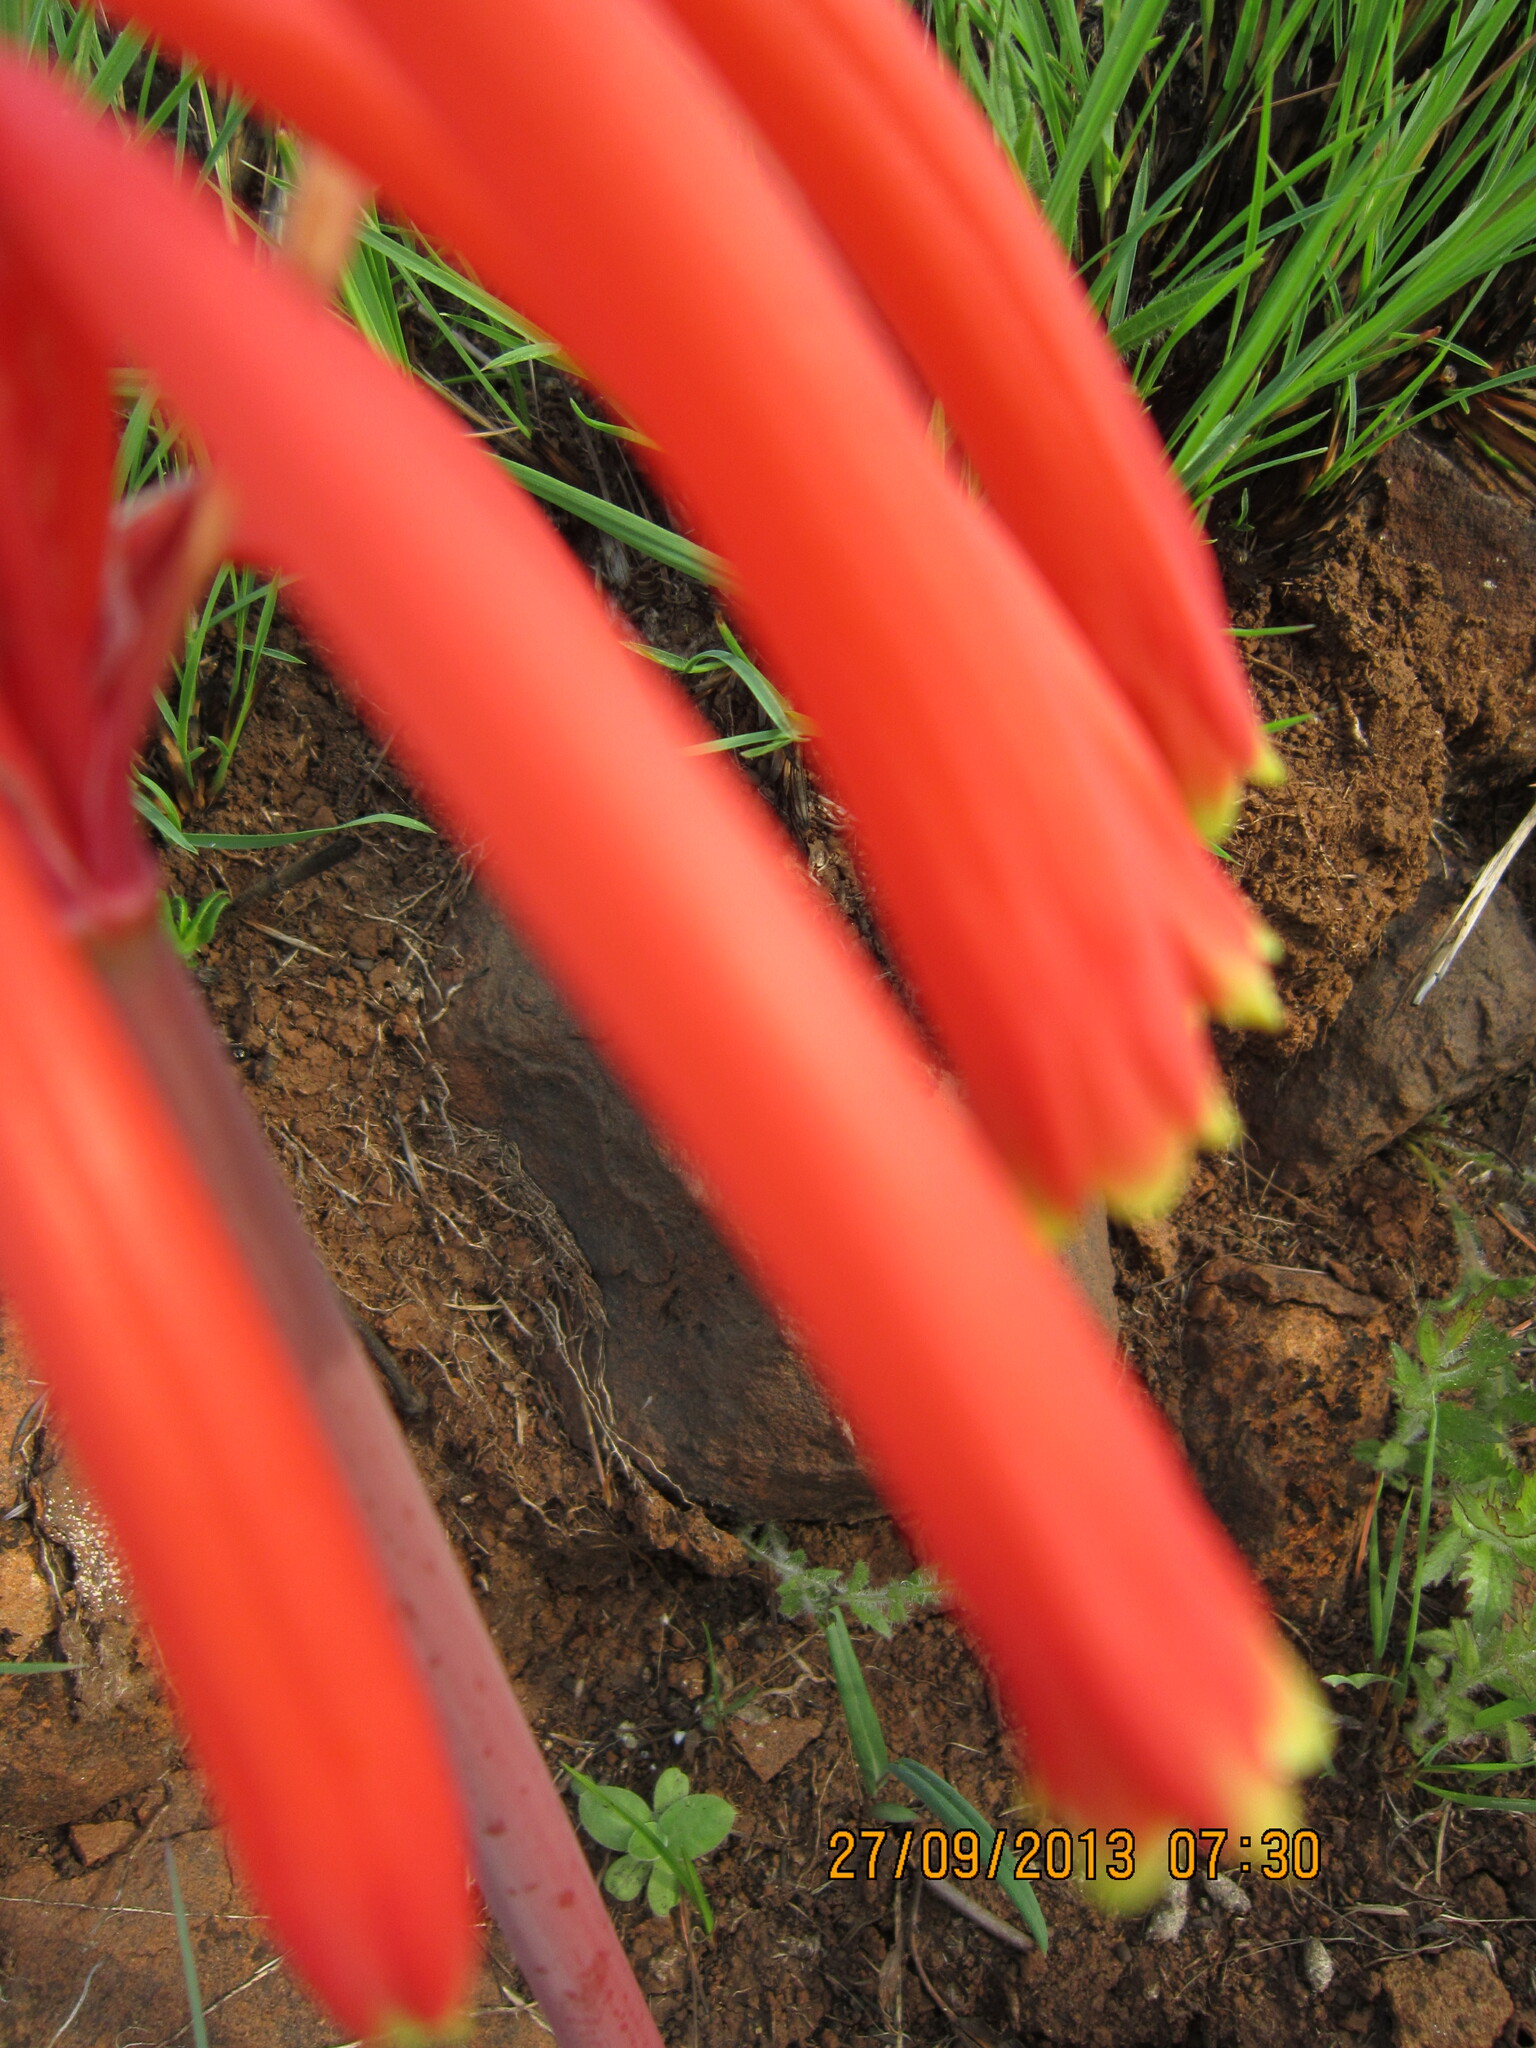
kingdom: Plantae
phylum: Tracheophyta
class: Liliopsida
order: Asparagales
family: Amaryllidaceae
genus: Cyrtanthus
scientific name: Cyrtanthus tuckii
